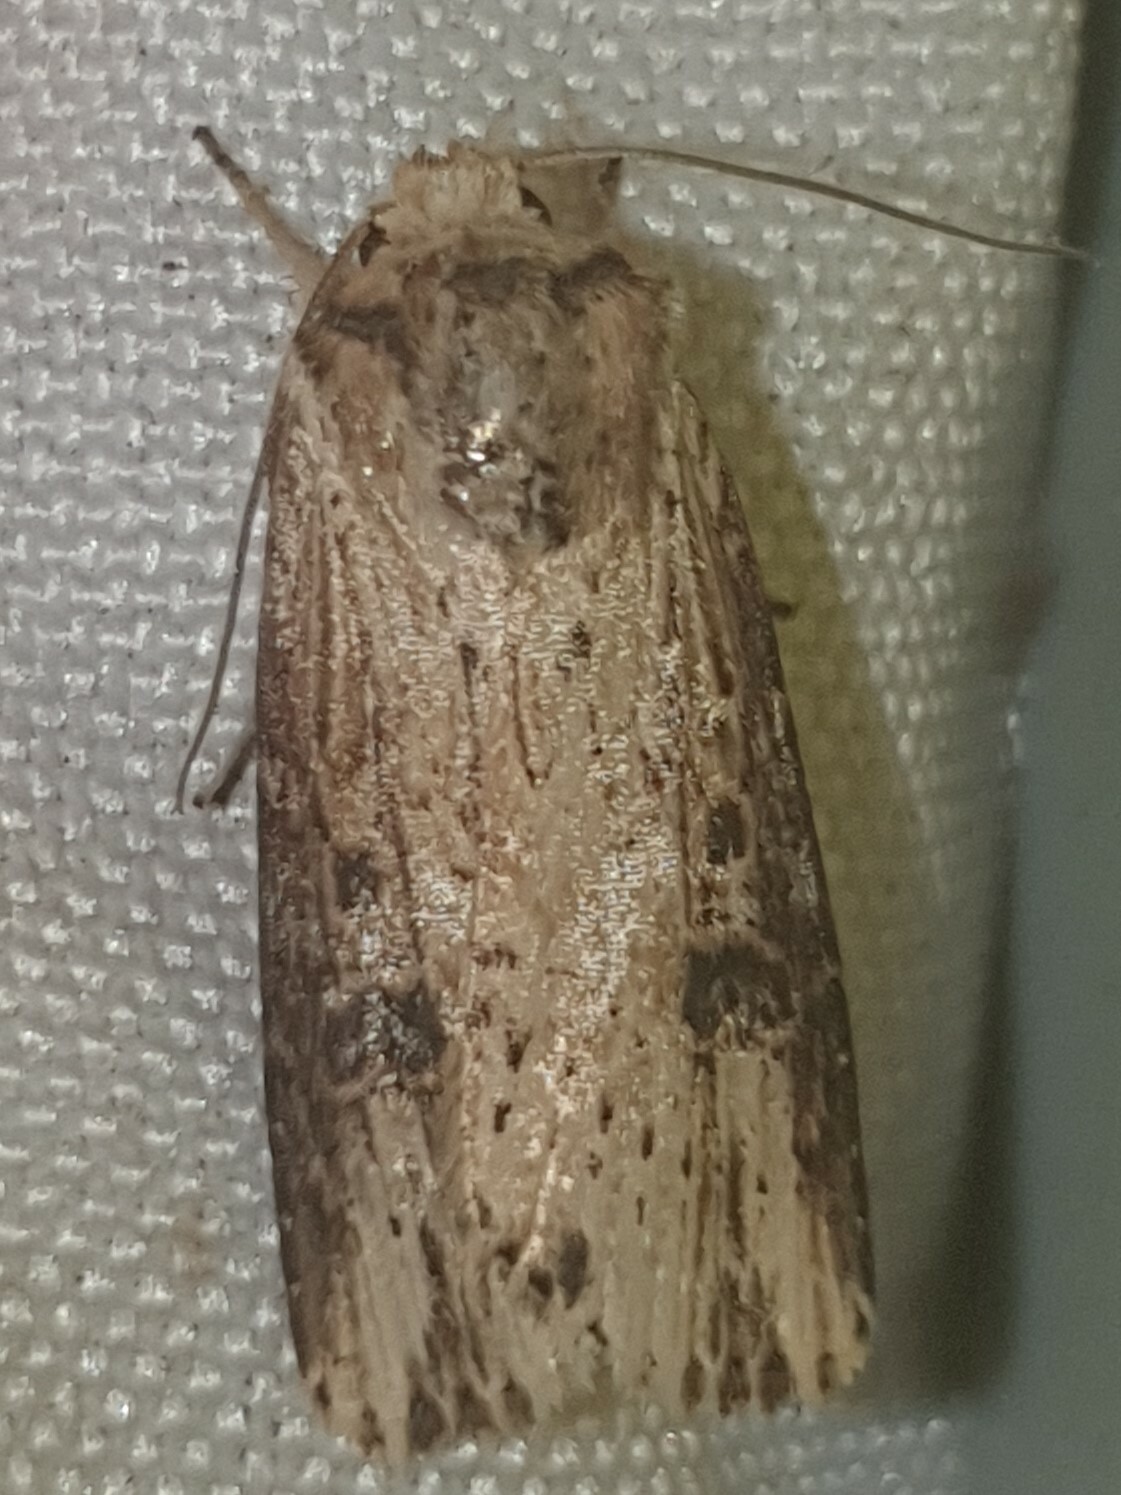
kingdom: Animalia
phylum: Arthropoda
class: Insecta
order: Lepidoptera
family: Noctuidae
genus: Axylia
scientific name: Axylia putris
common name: Flame
